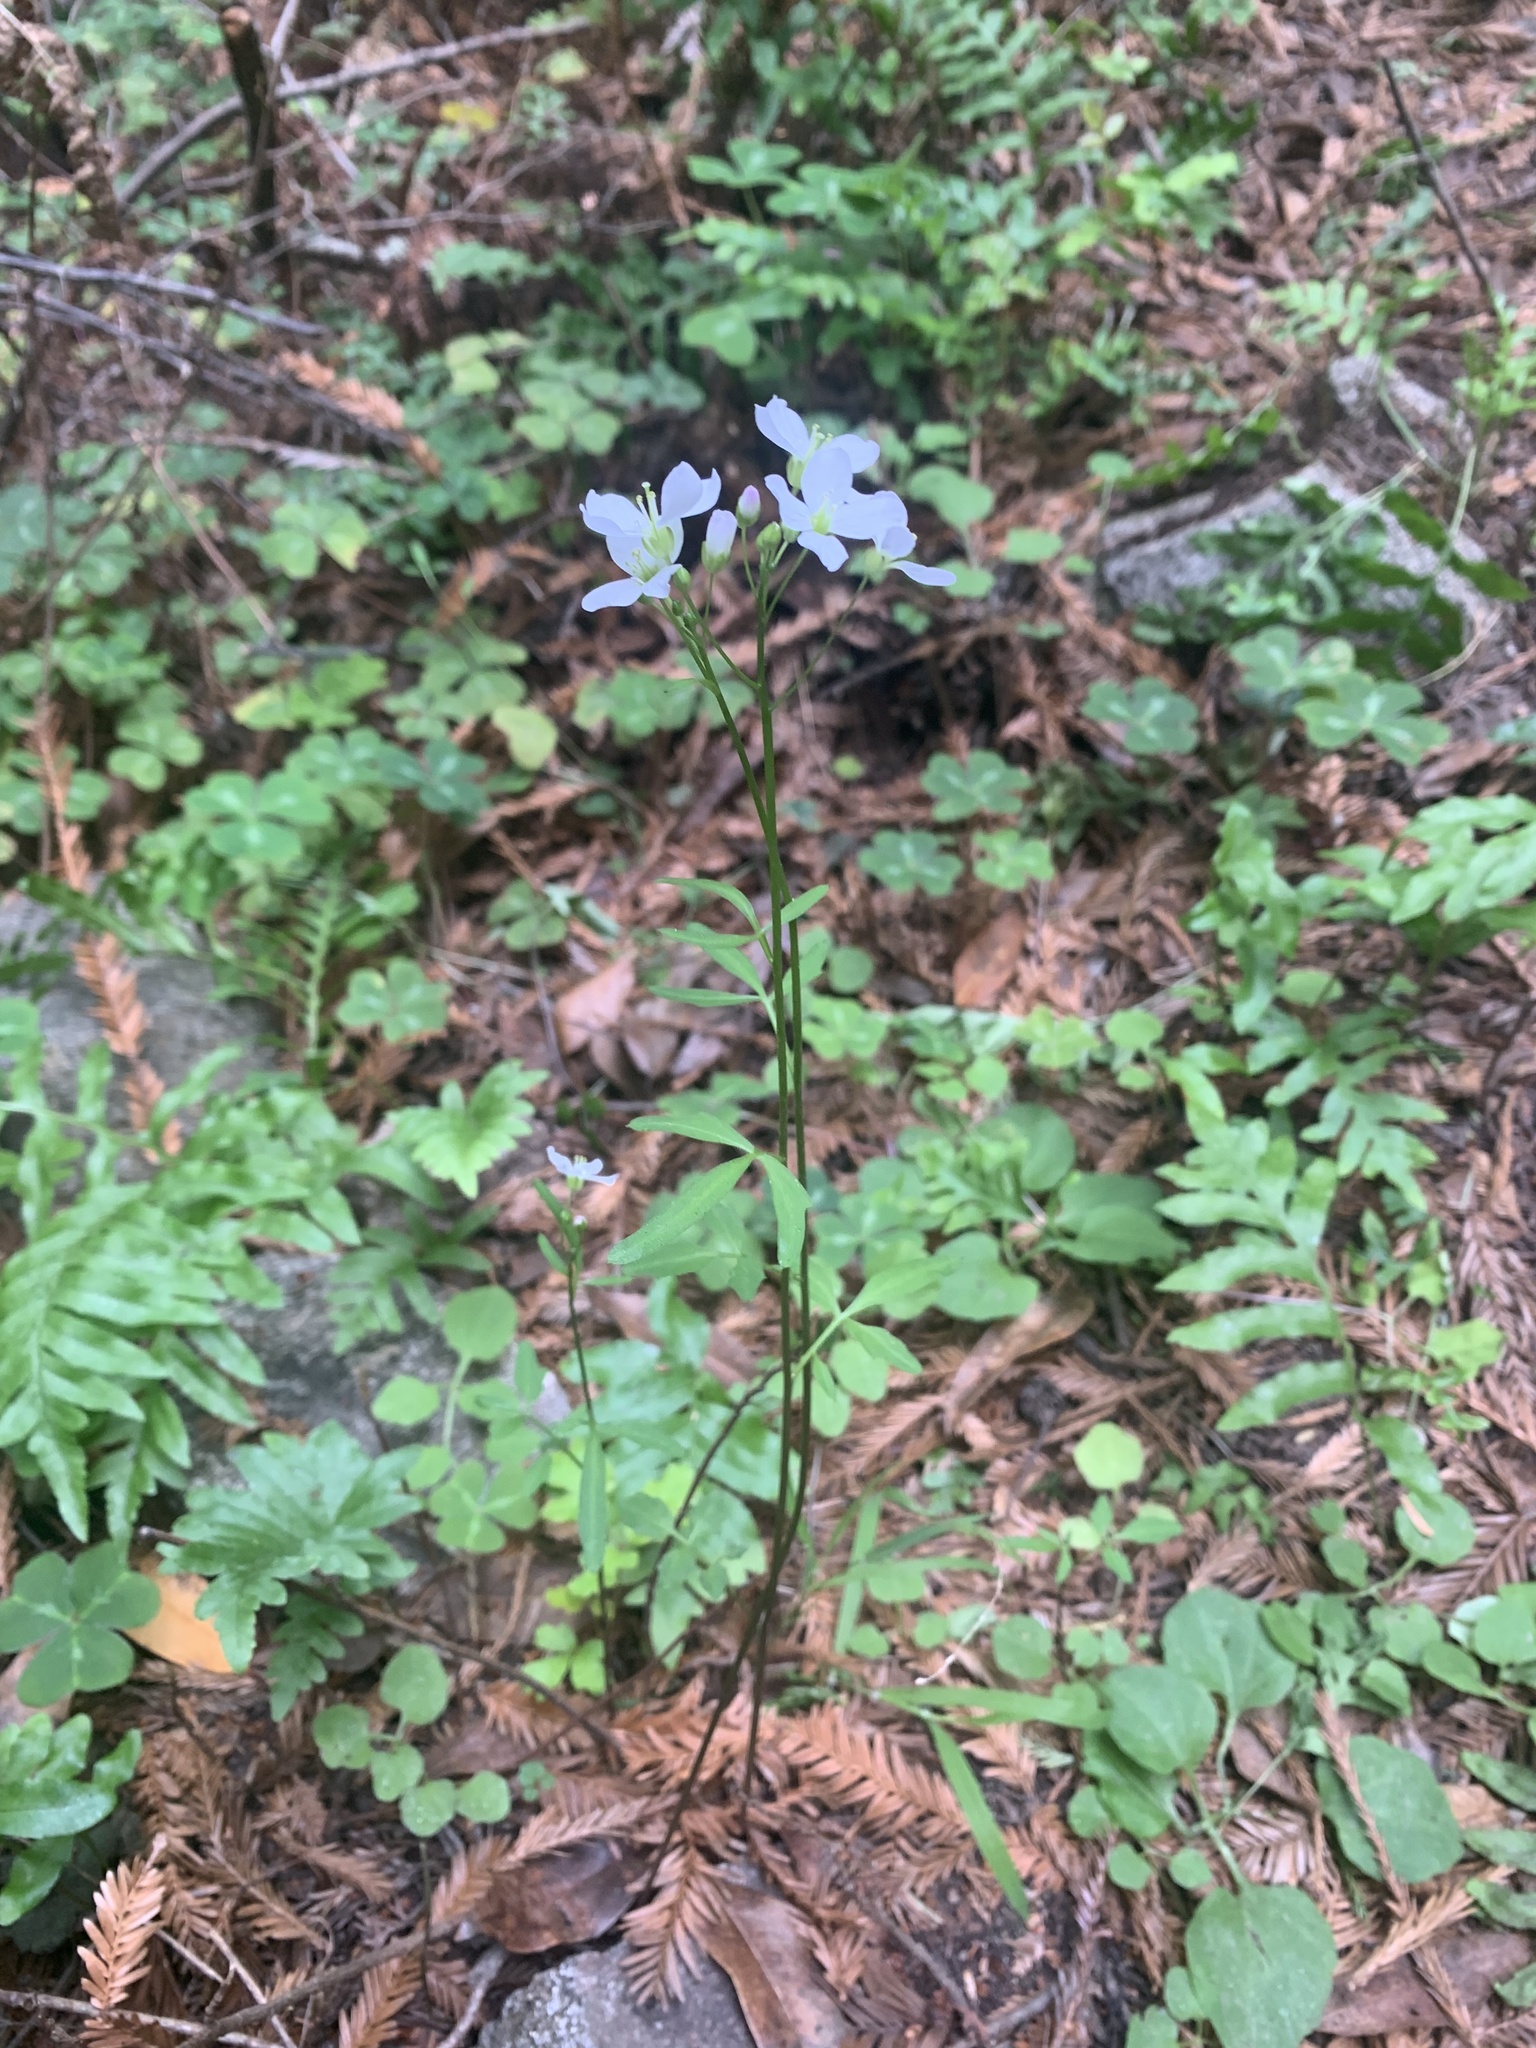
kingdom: Plantae
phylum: Tracheophyta
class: Magnoliopsida
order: Brassicales
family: Brassicaceae
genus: Cardamine
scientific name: Cardamine californica
